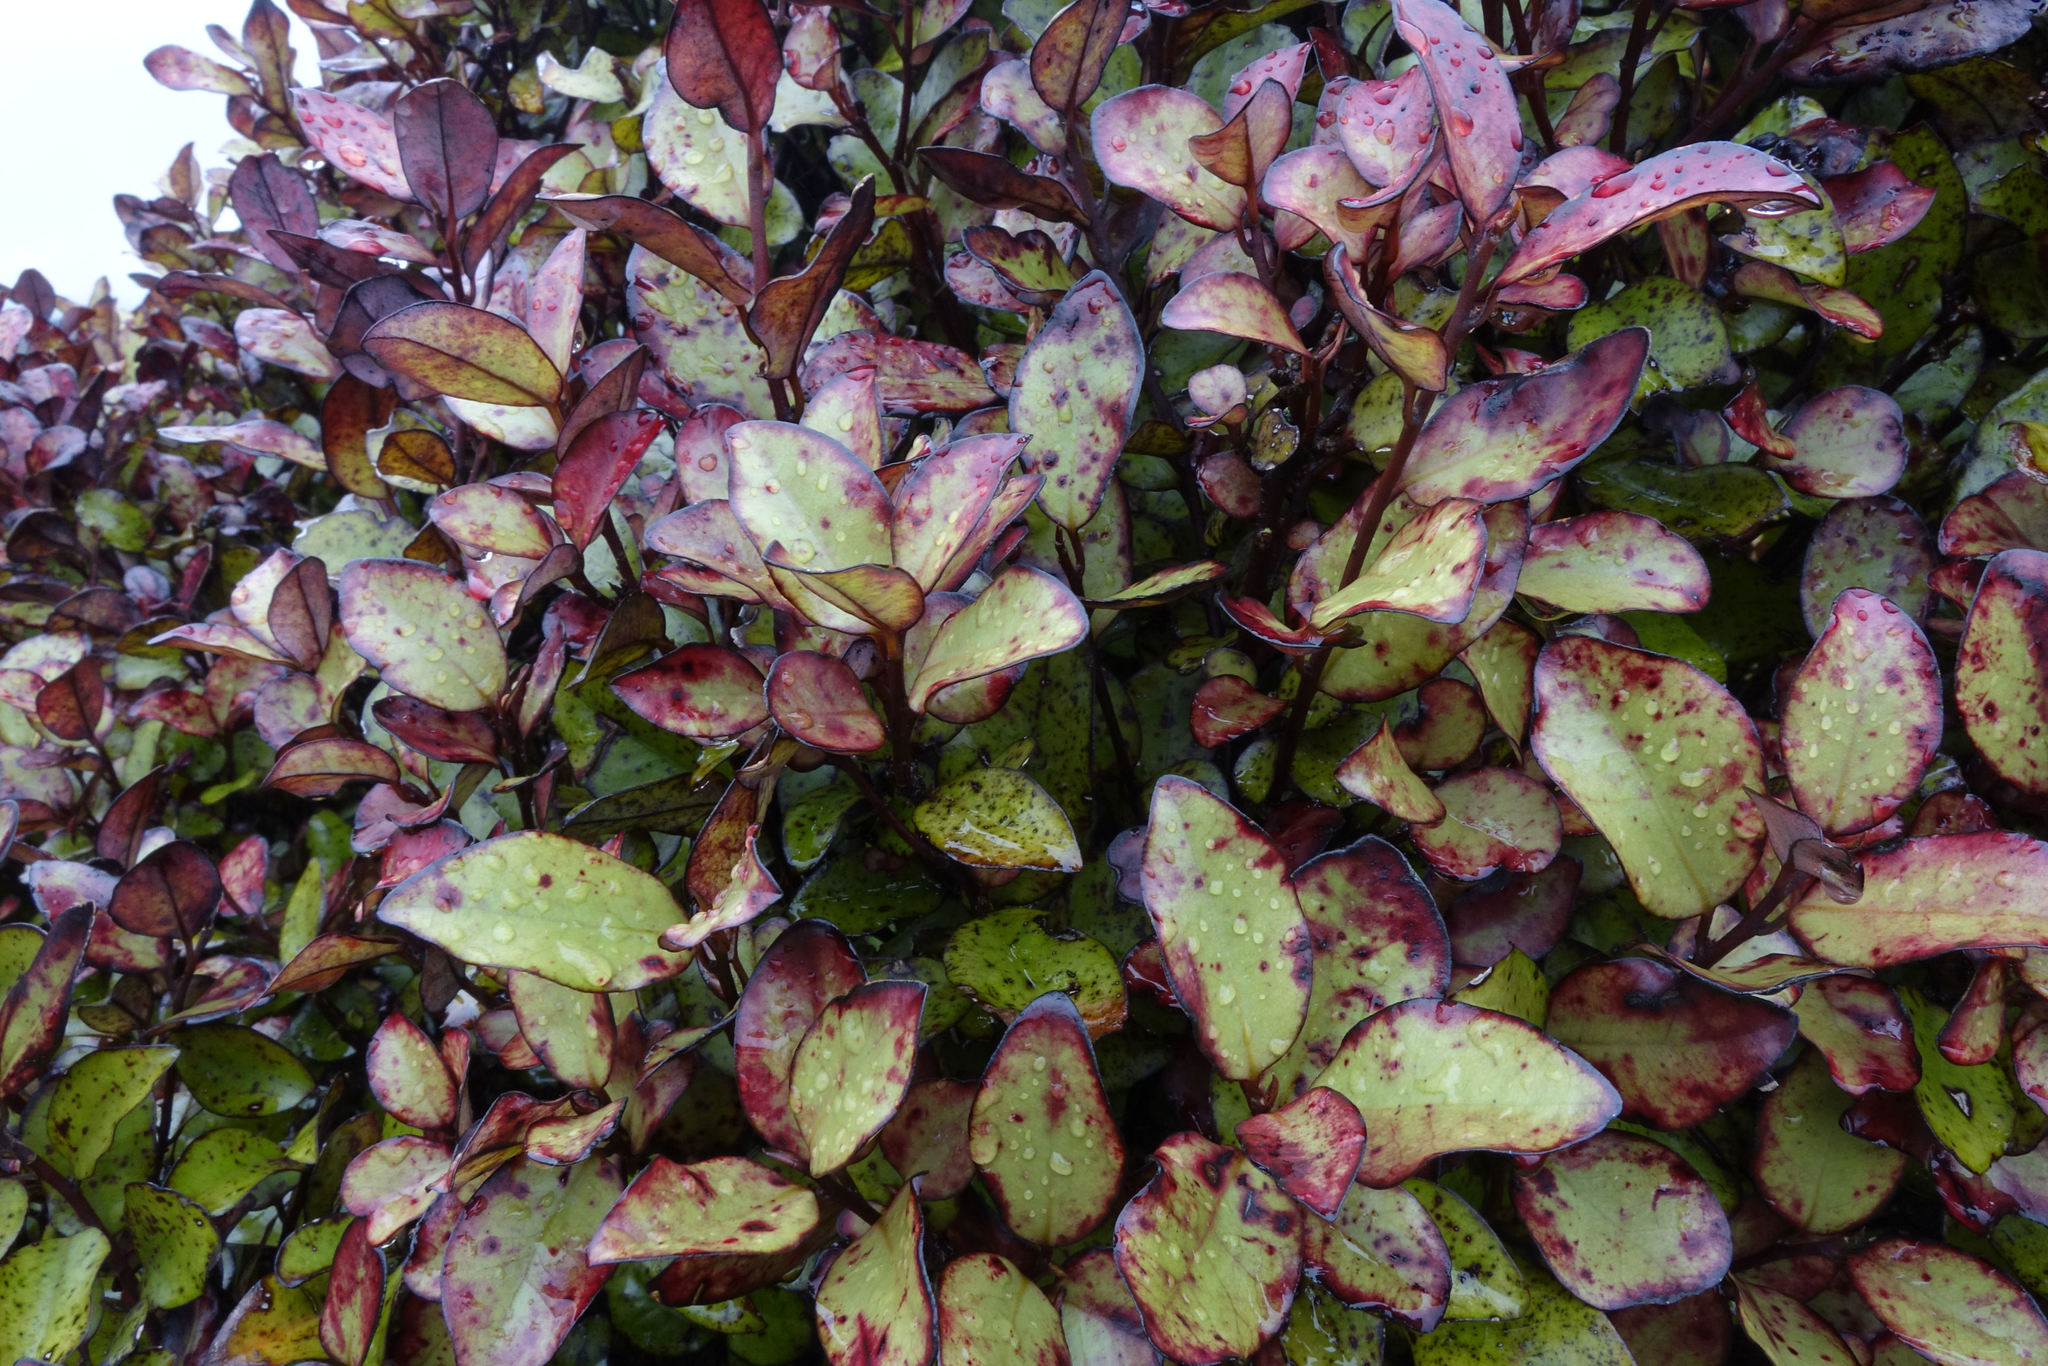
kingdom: Plantae
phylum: Tracheophyta
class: Magnoliopsida
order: Canellales
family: Winteraceae
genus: Pseudowintera
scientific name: Pseudowintera colorata
